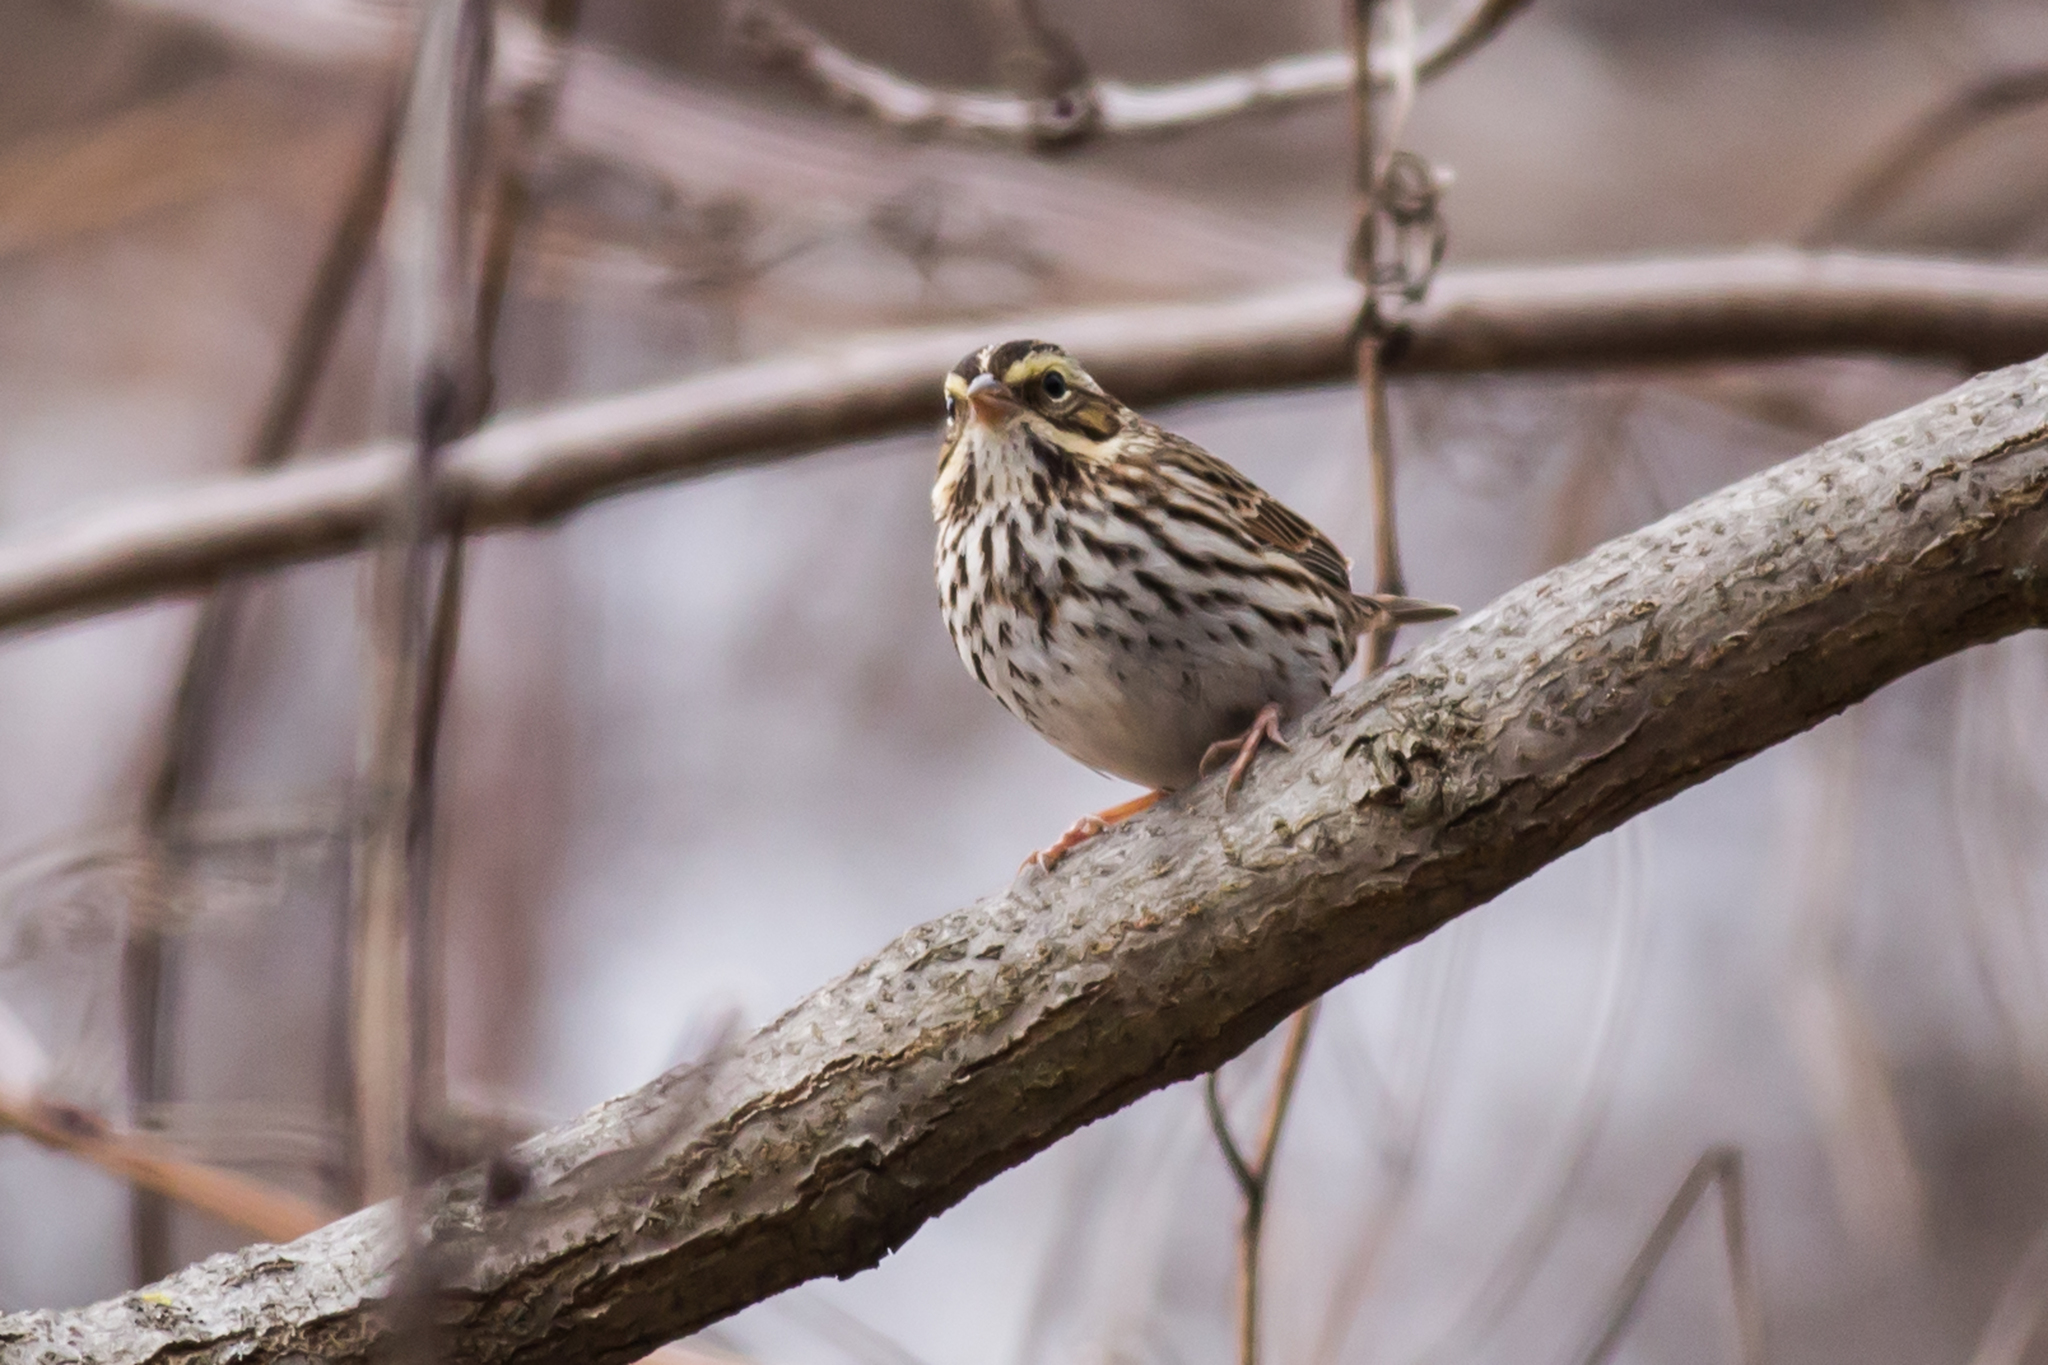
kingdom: Animalia
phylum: Chordata
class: Aves
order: Passeriformes
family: Passerellidae
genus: Passerculus
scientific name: Passerculus sandwichensis
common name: Savannah sparrow
